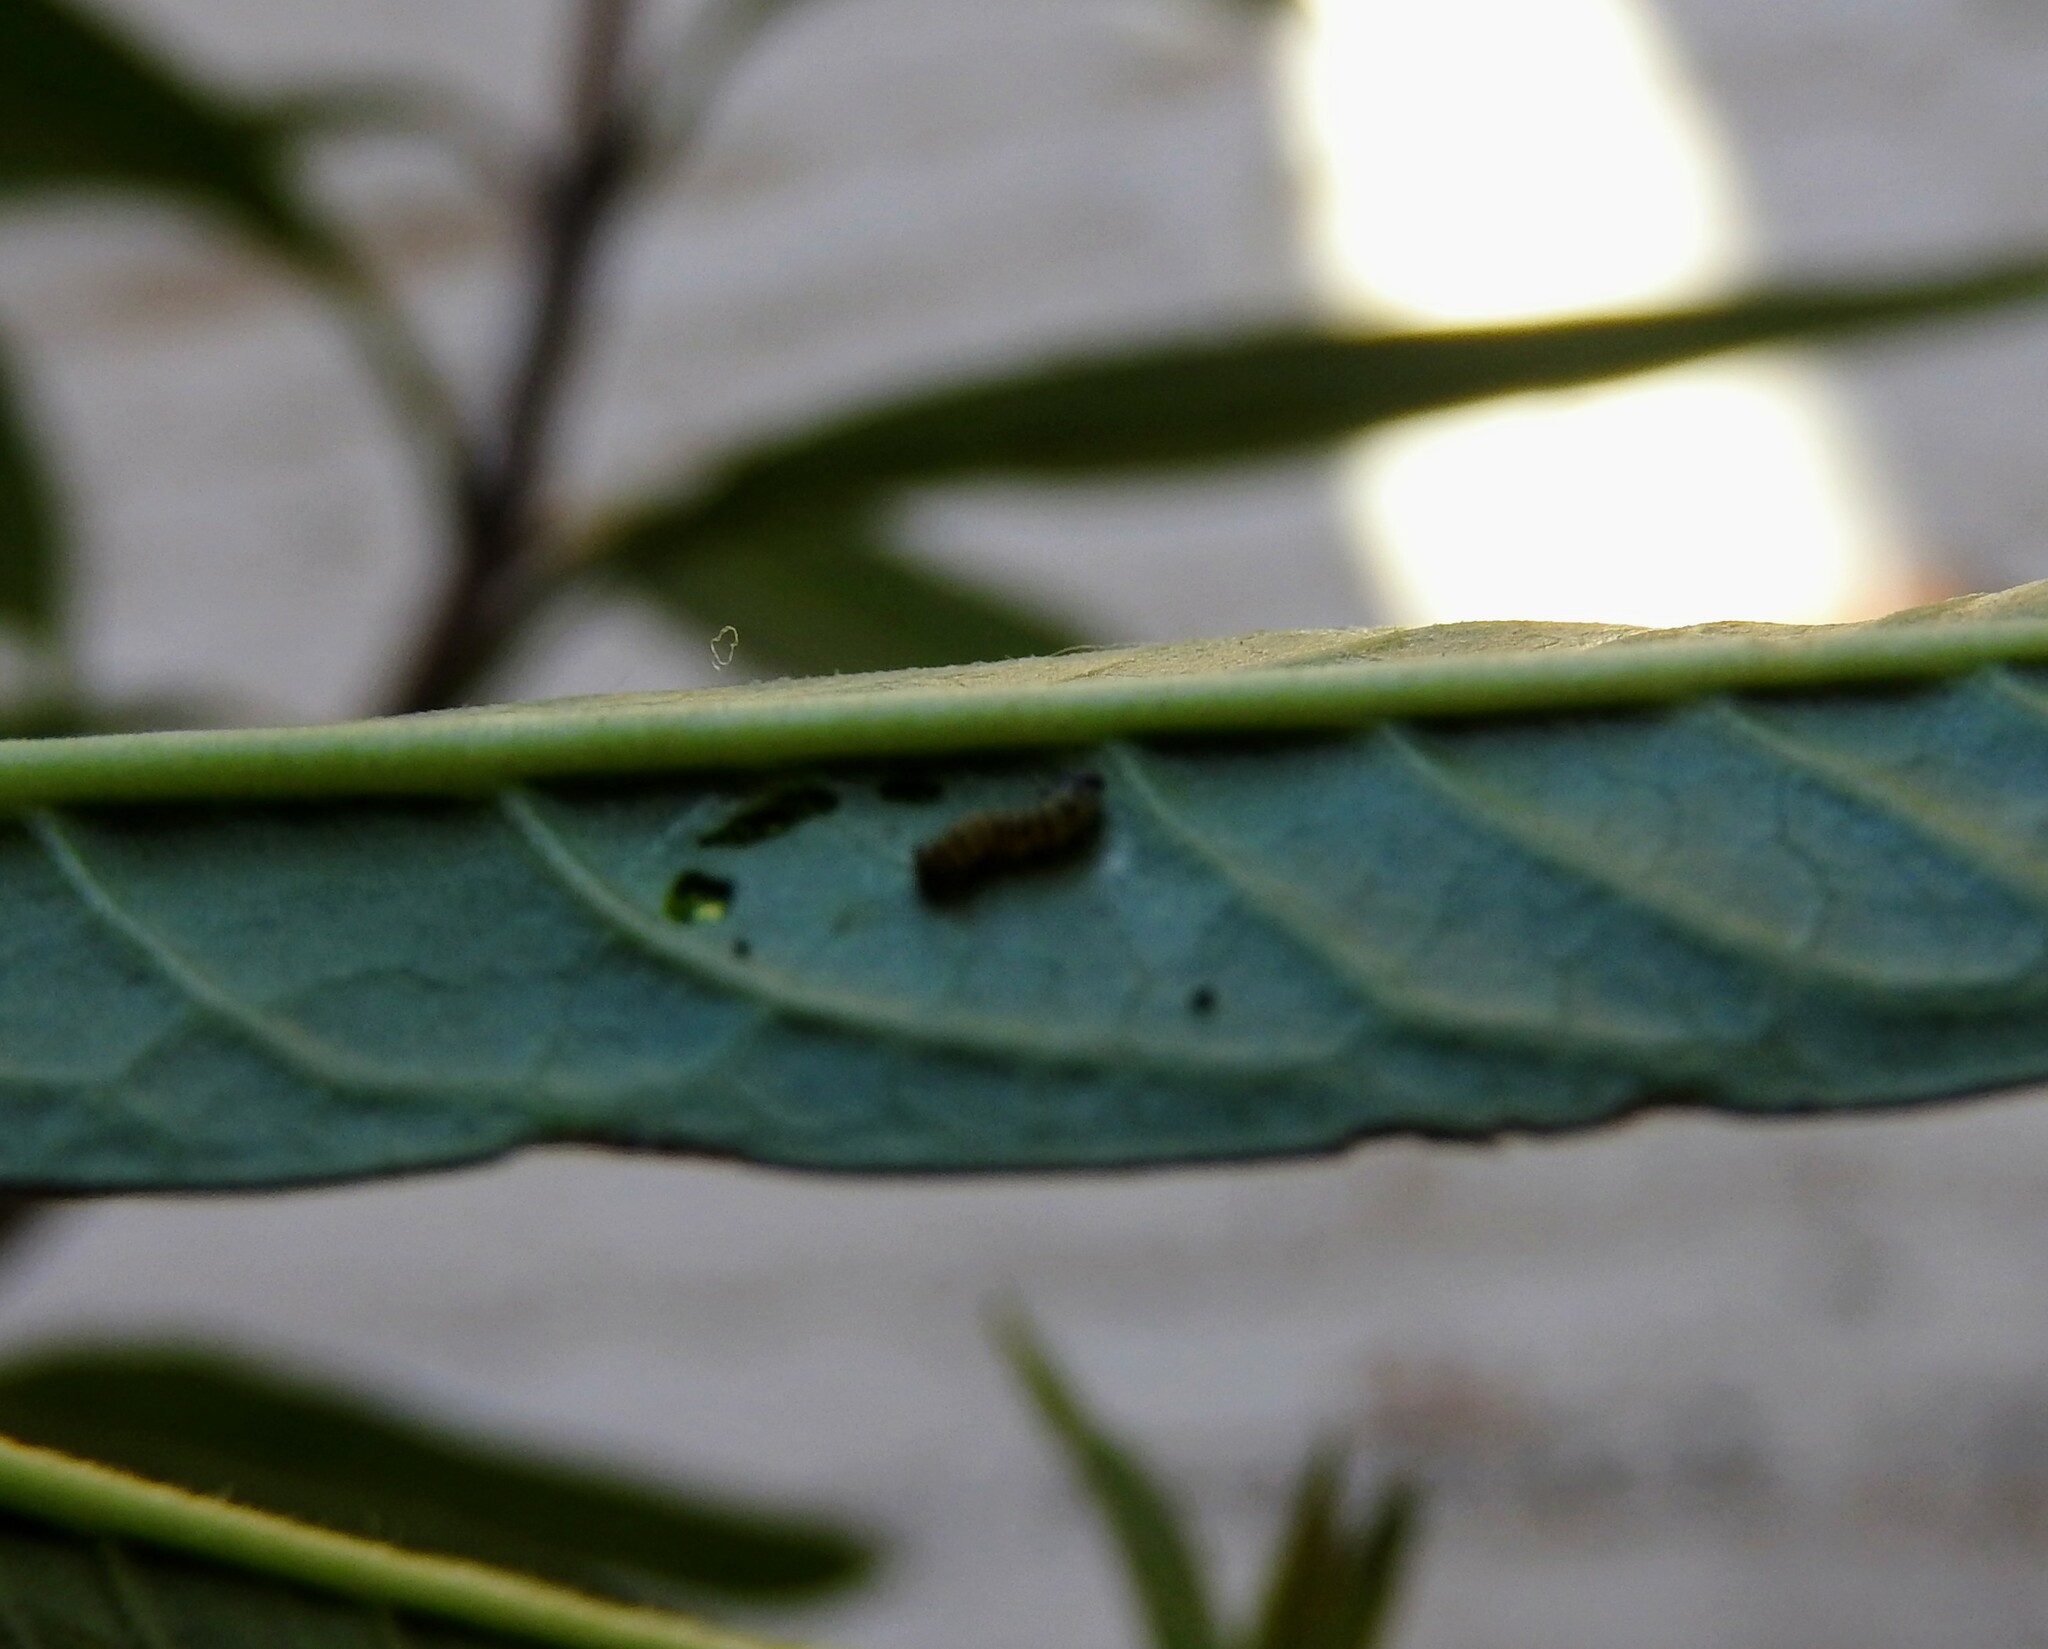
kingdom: Animalia
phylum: Arthropoda
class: Insecta
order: Lepidoptera
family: Nymphalidae
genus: Danaus
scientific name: Danaus plexippus
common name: Monarch
